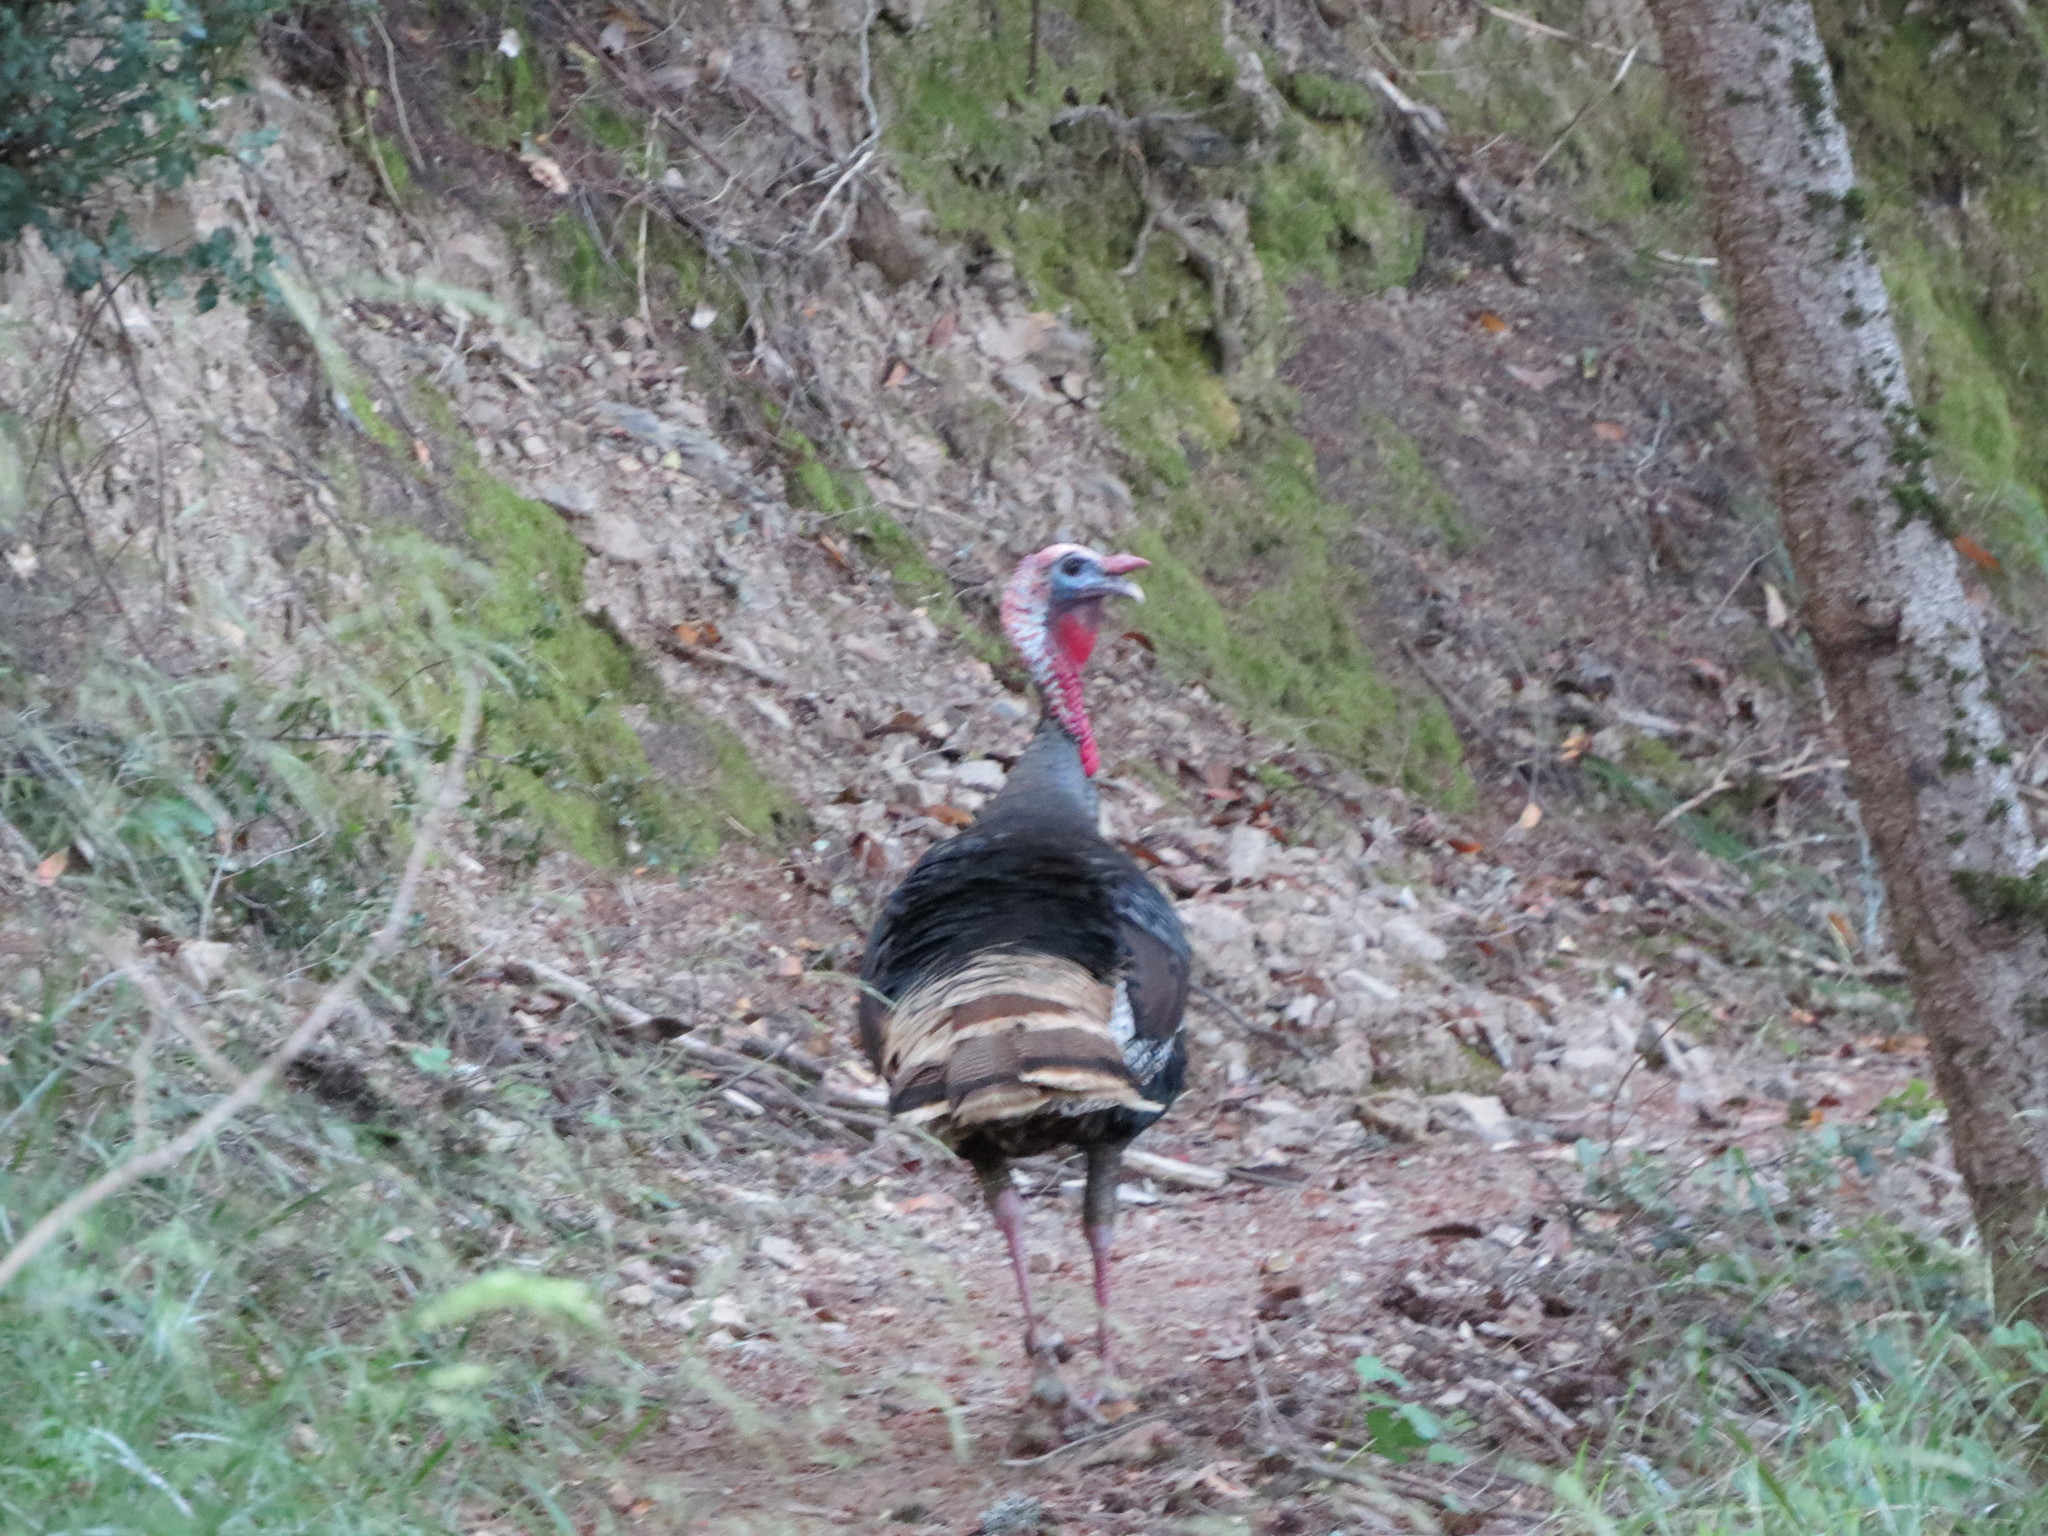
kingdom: Animalia
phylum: Chordata
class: Aves
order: Galliformes
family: Phasianidae
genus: Meleagris
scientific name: Meleagris gallopavo
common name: Wild turkey
